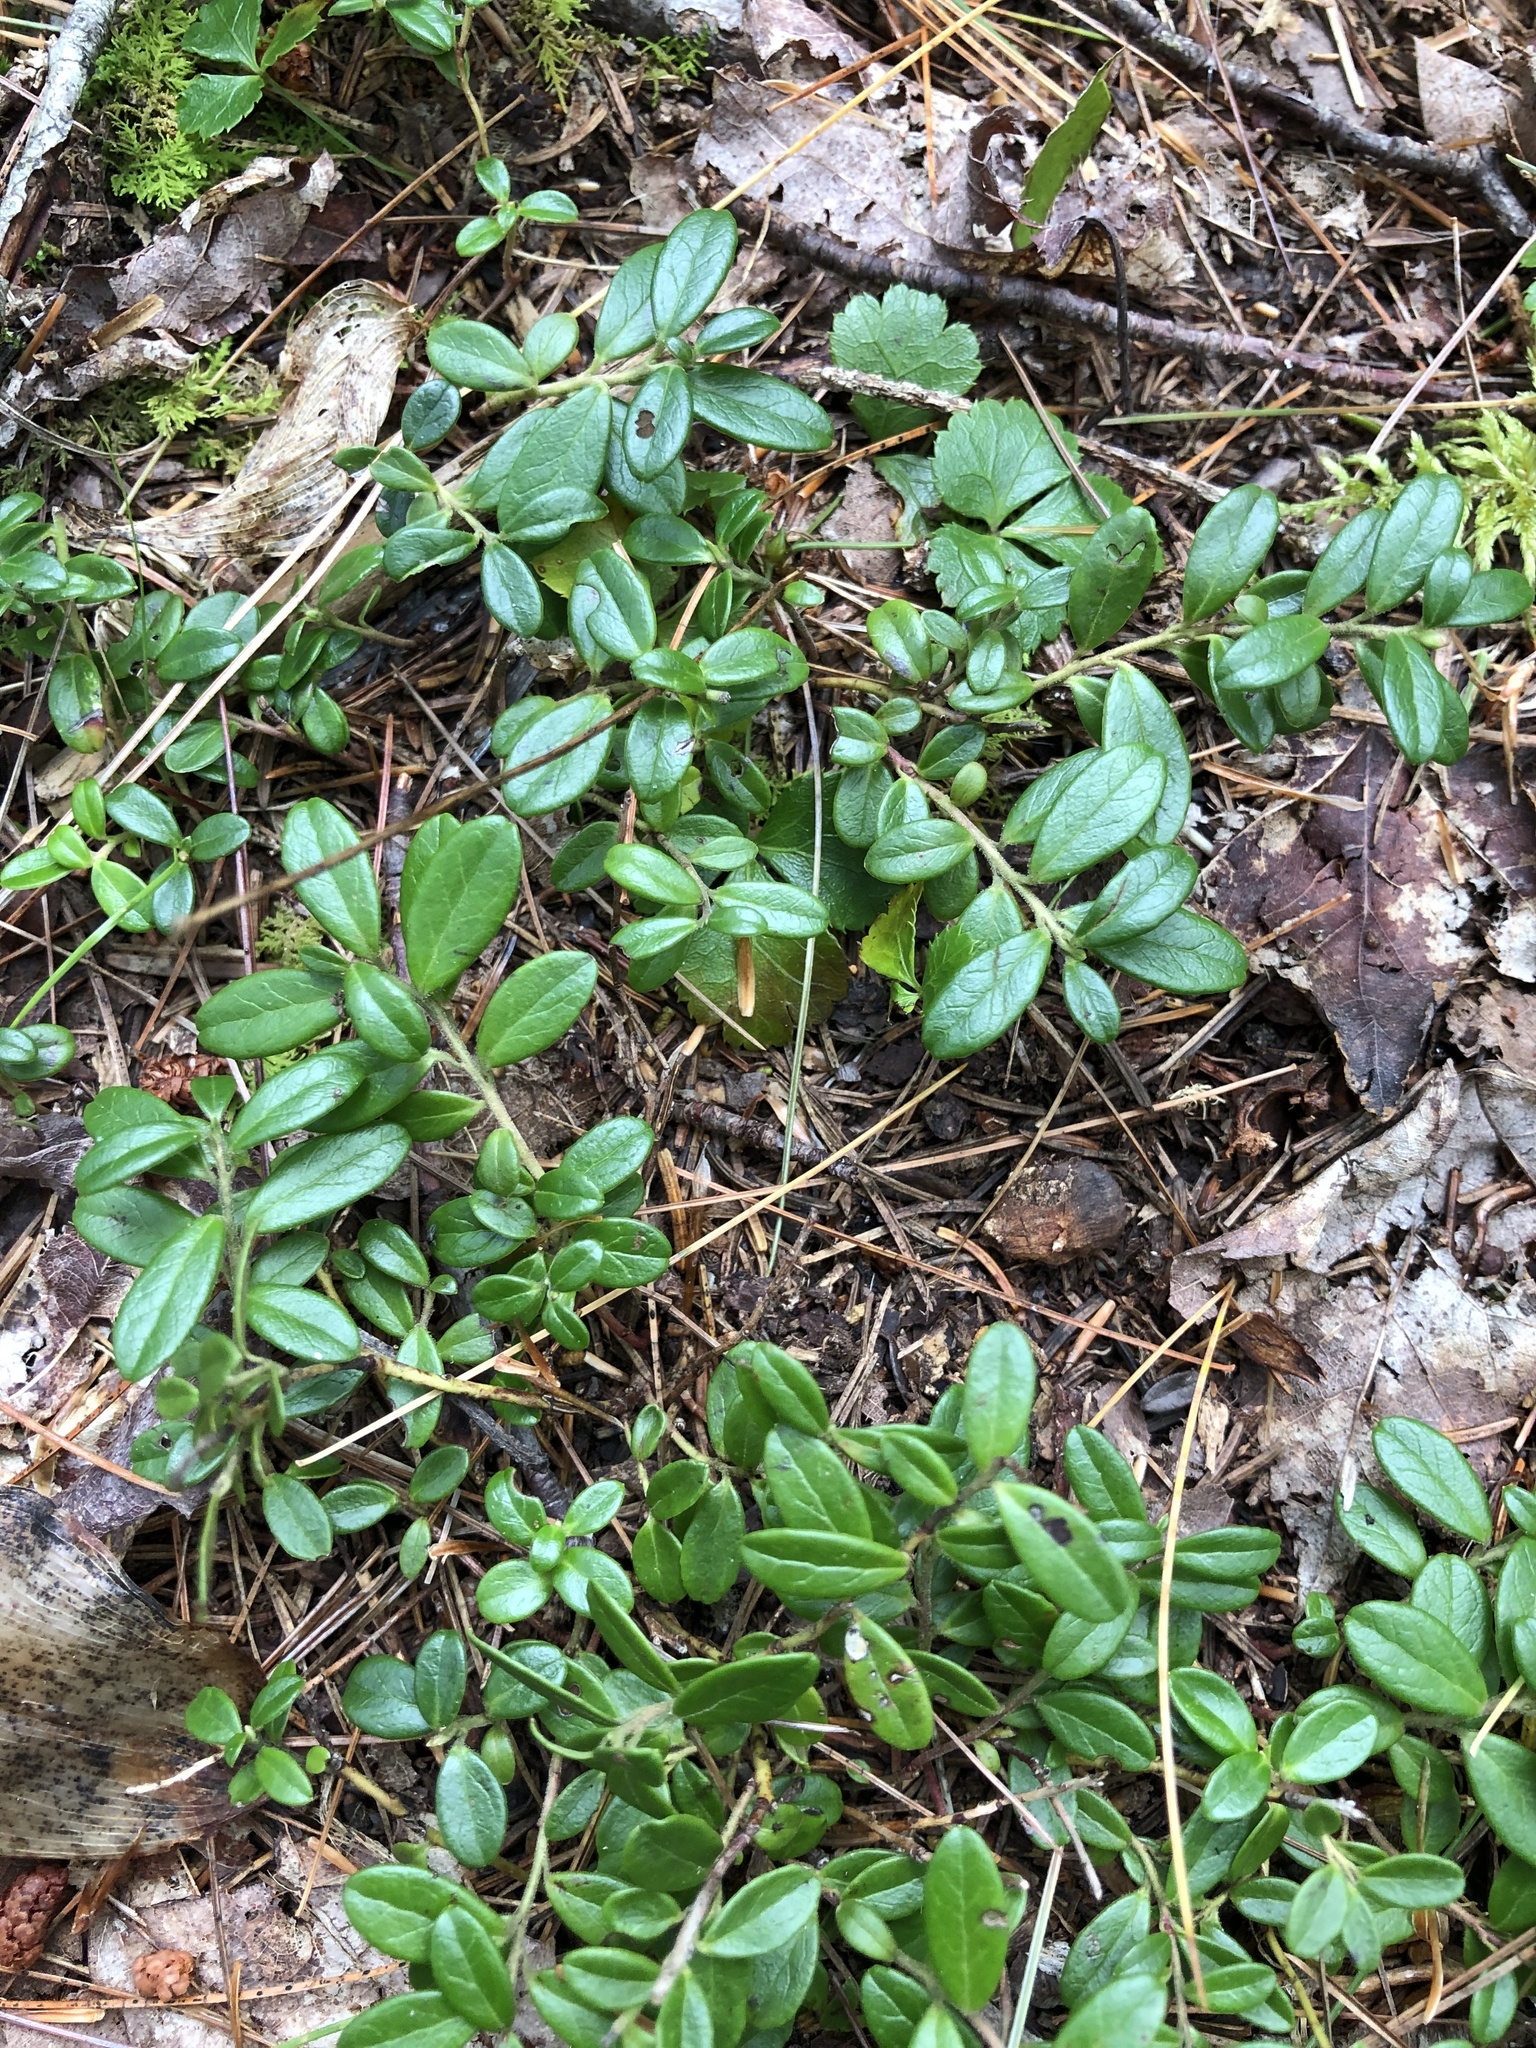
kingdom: Plantae
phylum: Tracheophyta
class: Magnoliopsida
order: Gentianales
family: Rubiaceae
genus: Mitchella
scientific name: Mitchella repens
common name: Partridge-berry
